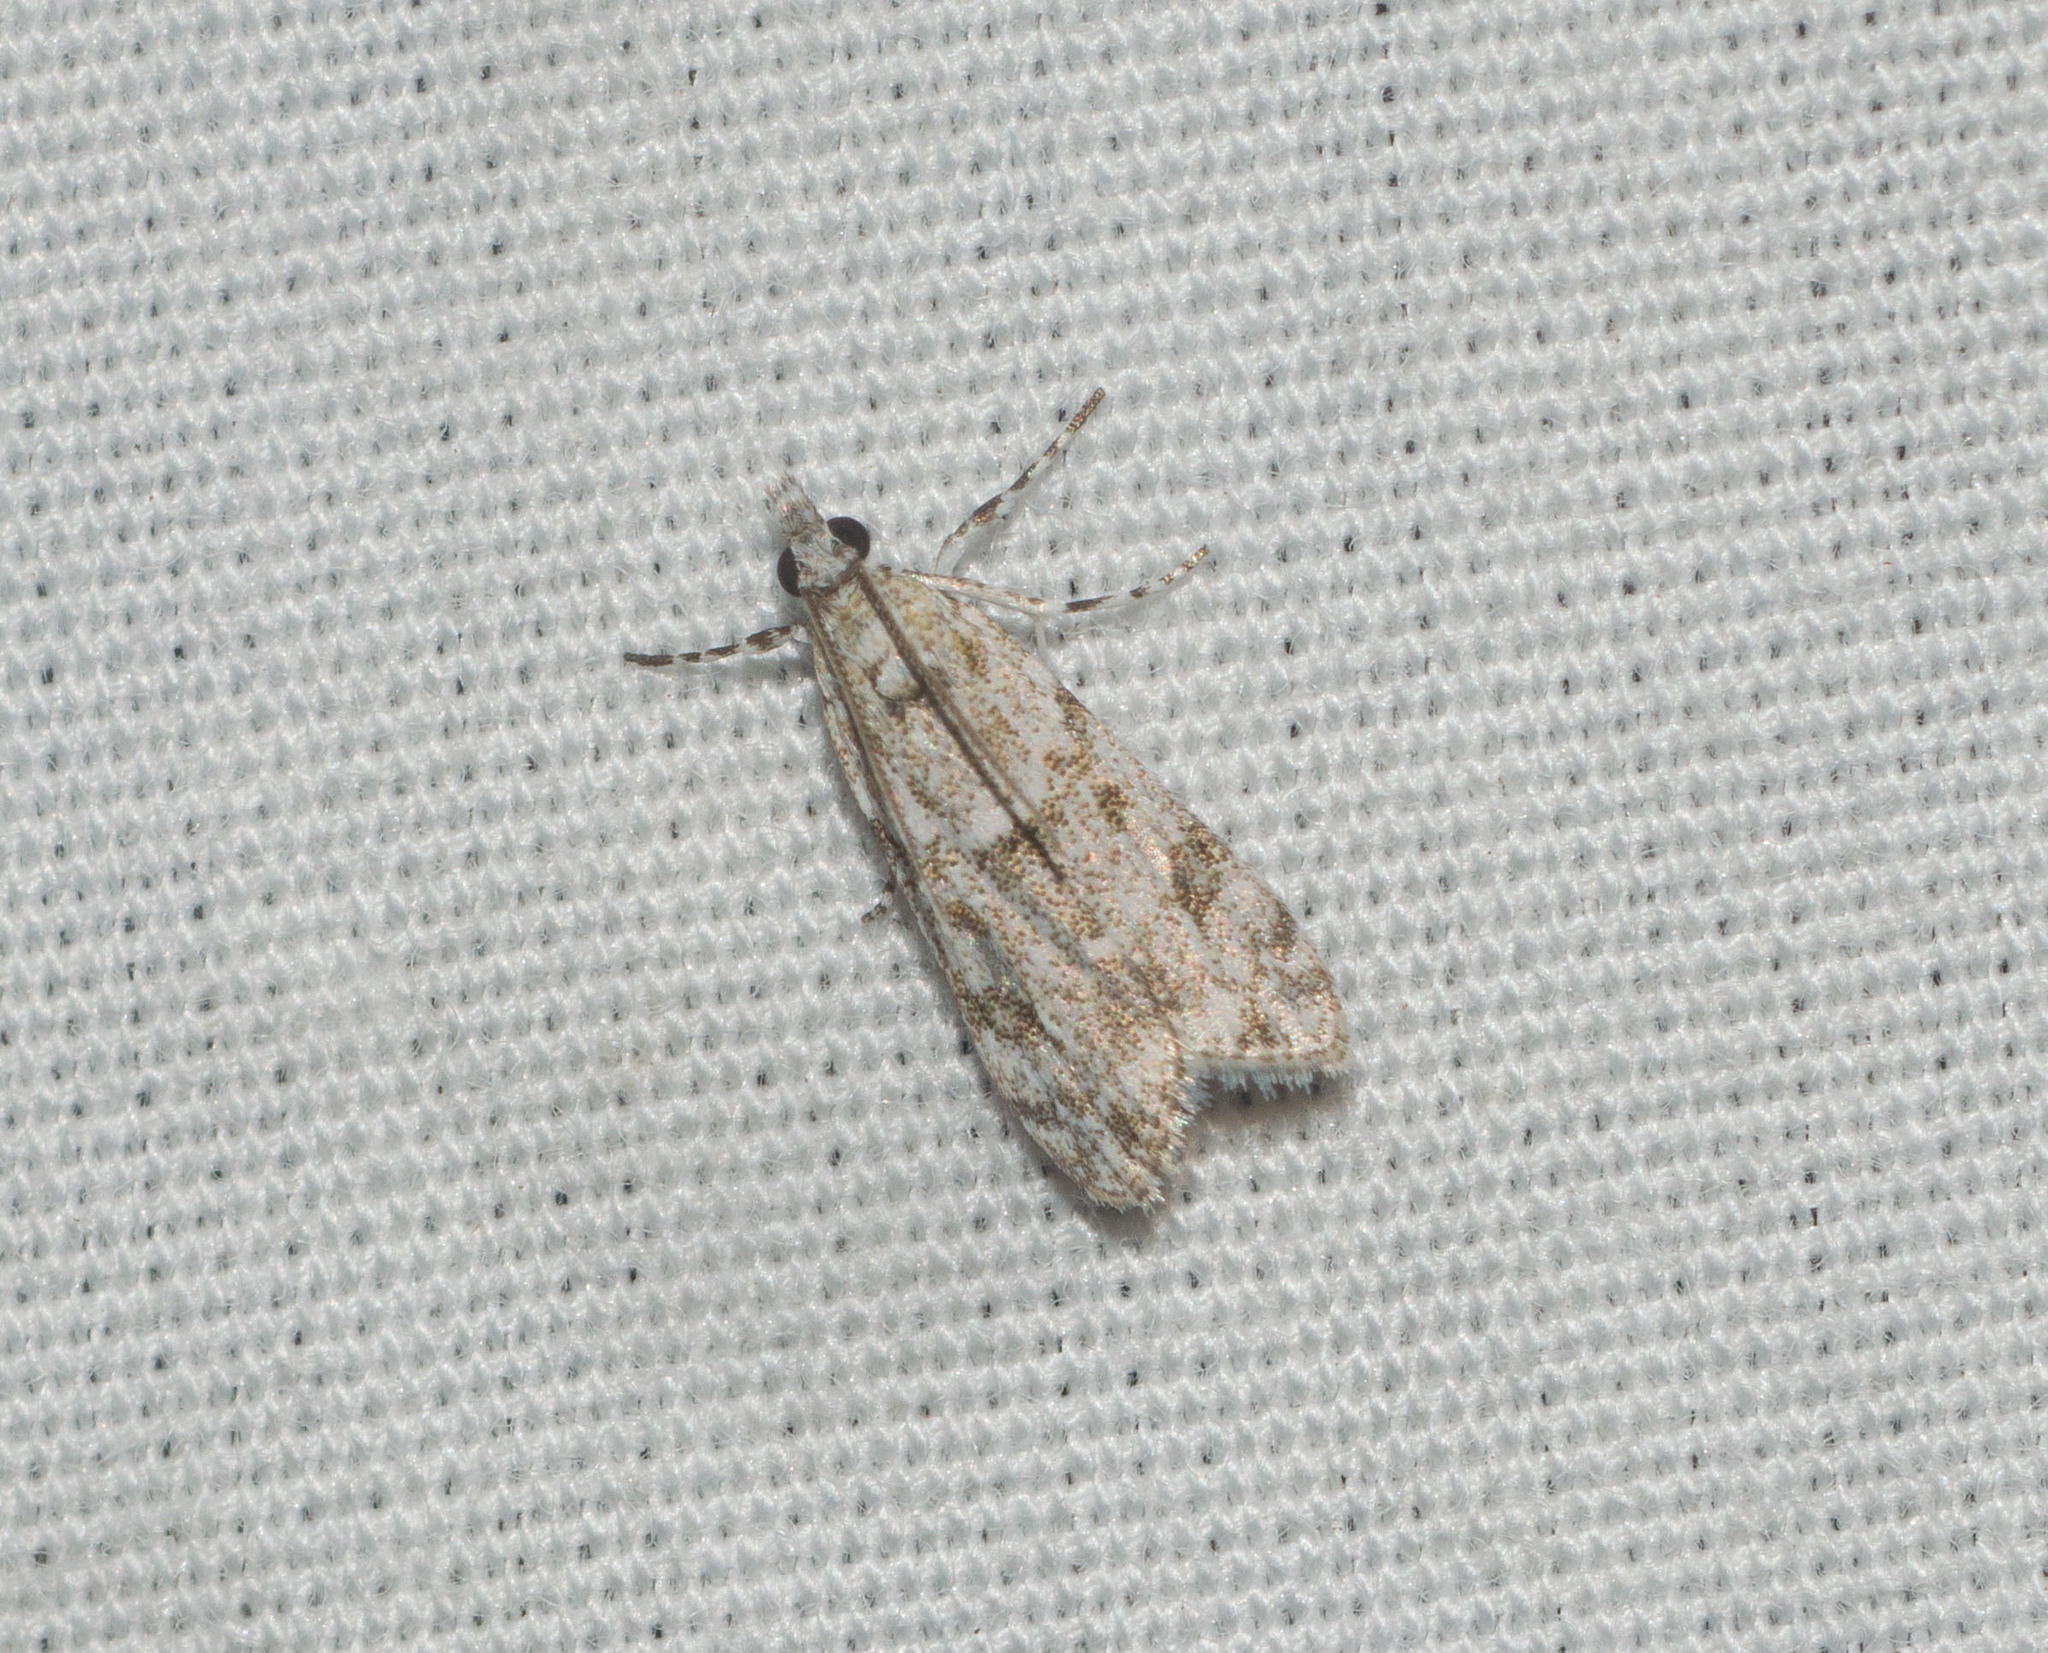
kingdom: Animalia
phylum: Arthropoda
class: Insecta
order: Lepidoptera
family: Crambidae
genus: Eudonia
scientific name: Eudonia geraea
